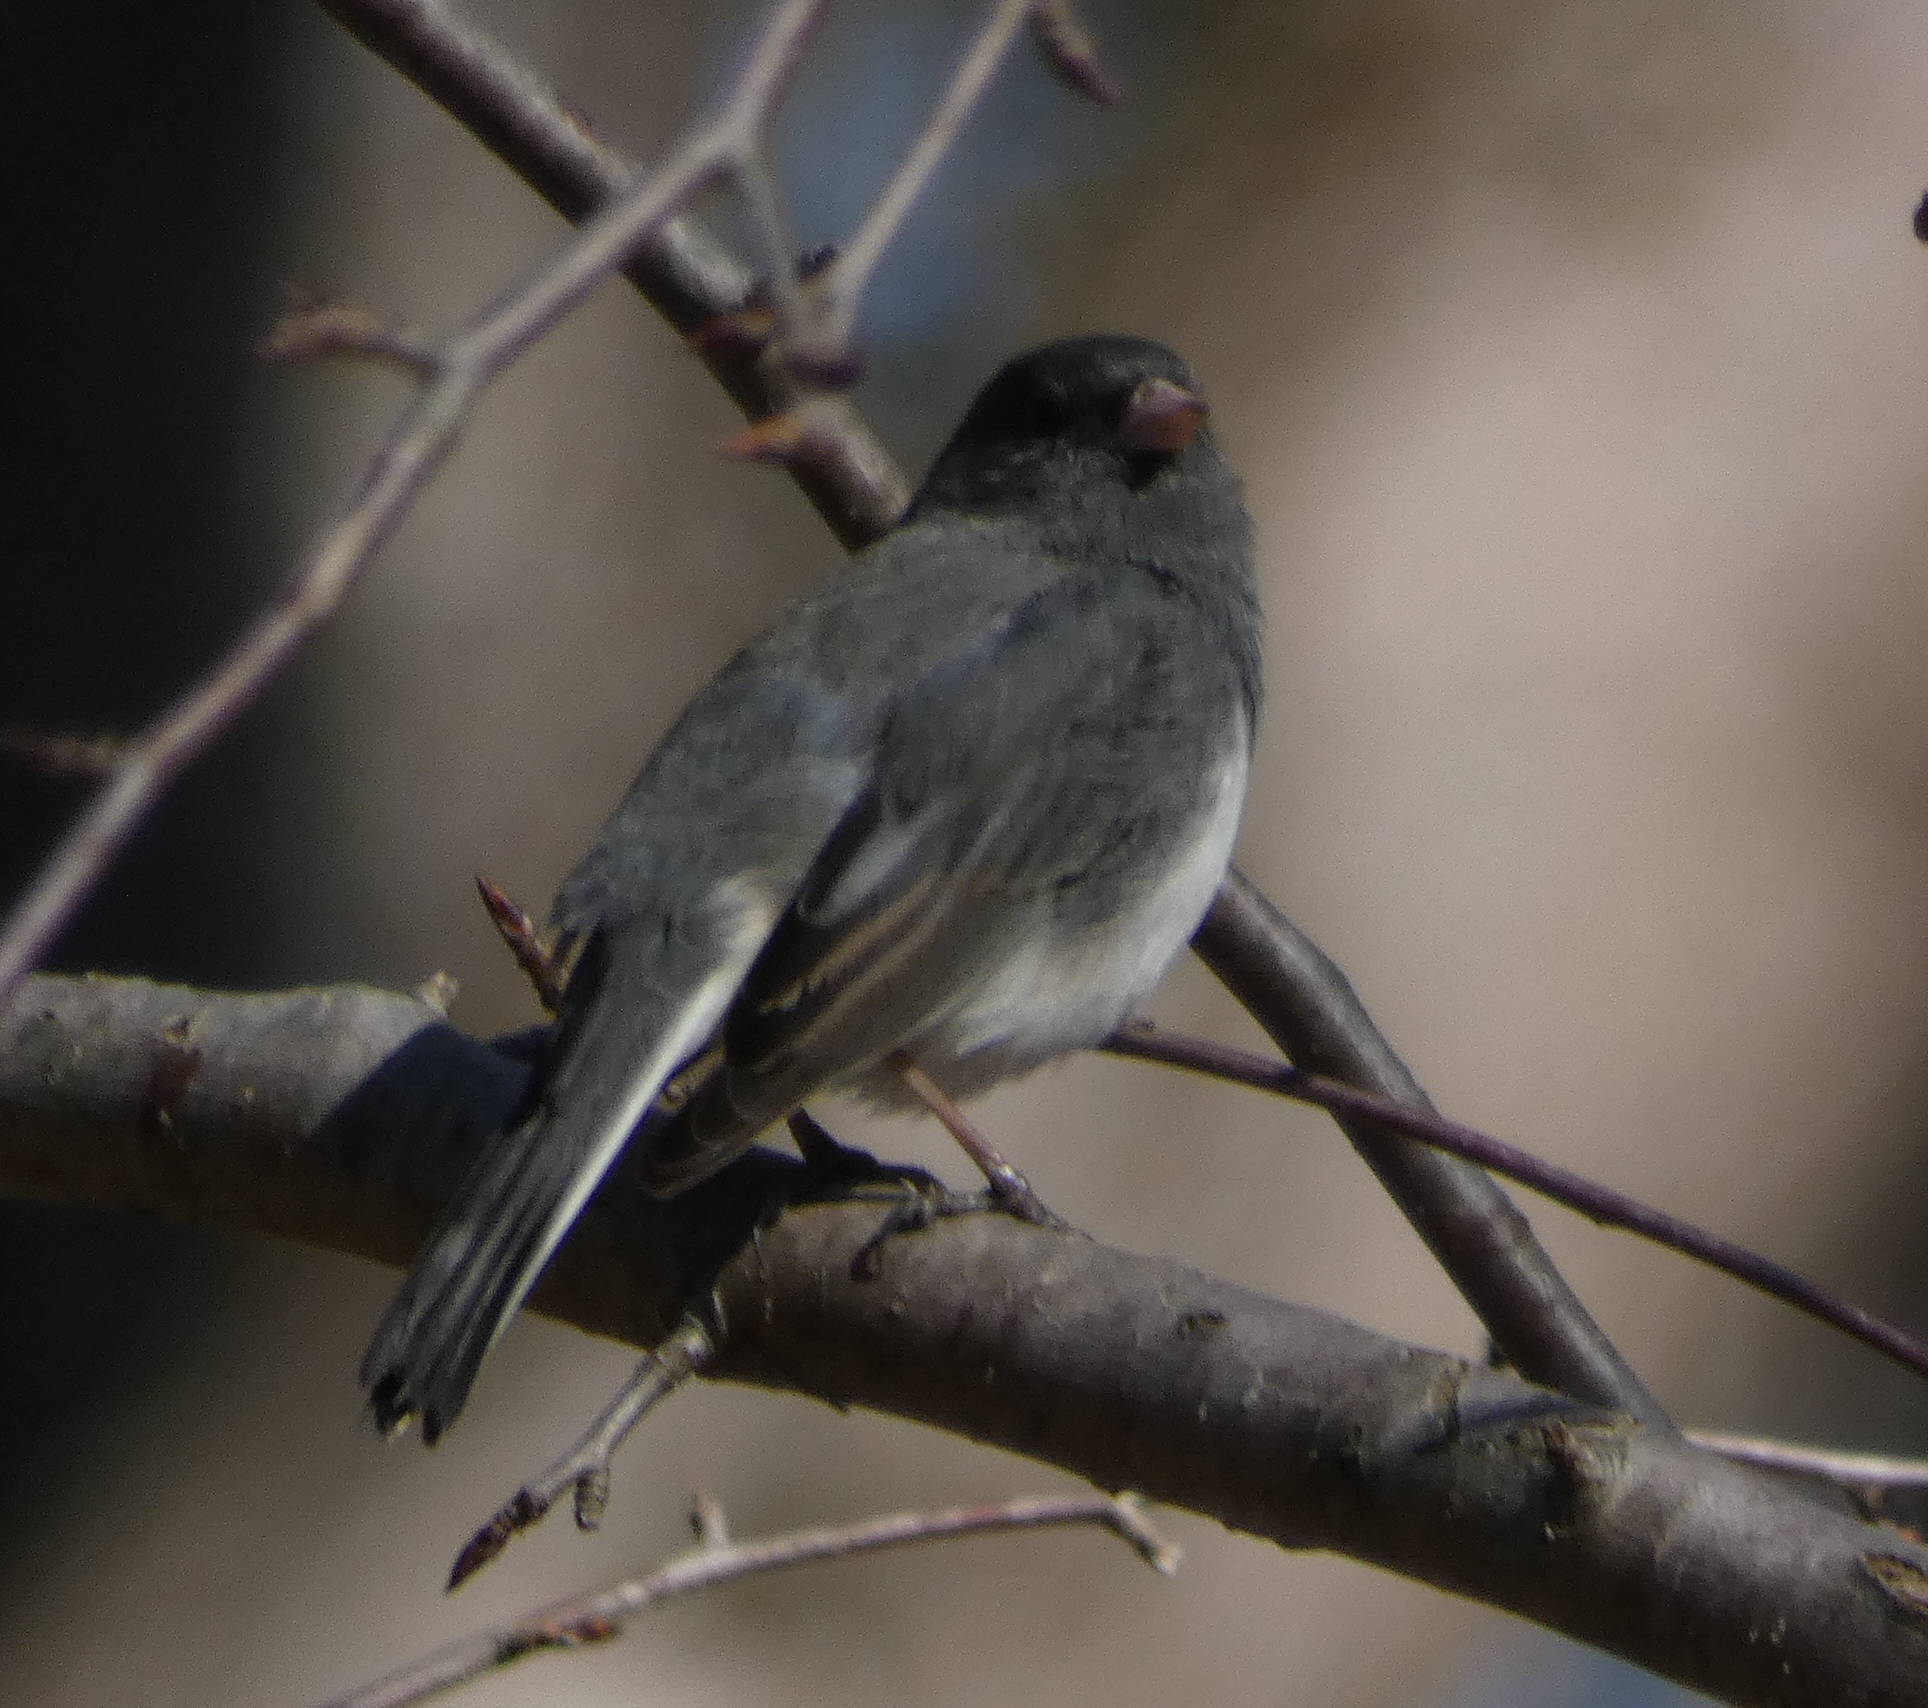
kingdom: Animalia
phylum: Chordata
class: Aves
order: Passeriformes
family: Passerellidae
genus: Junco
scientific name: Junco hyemalis
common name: Dark-eyed junco
